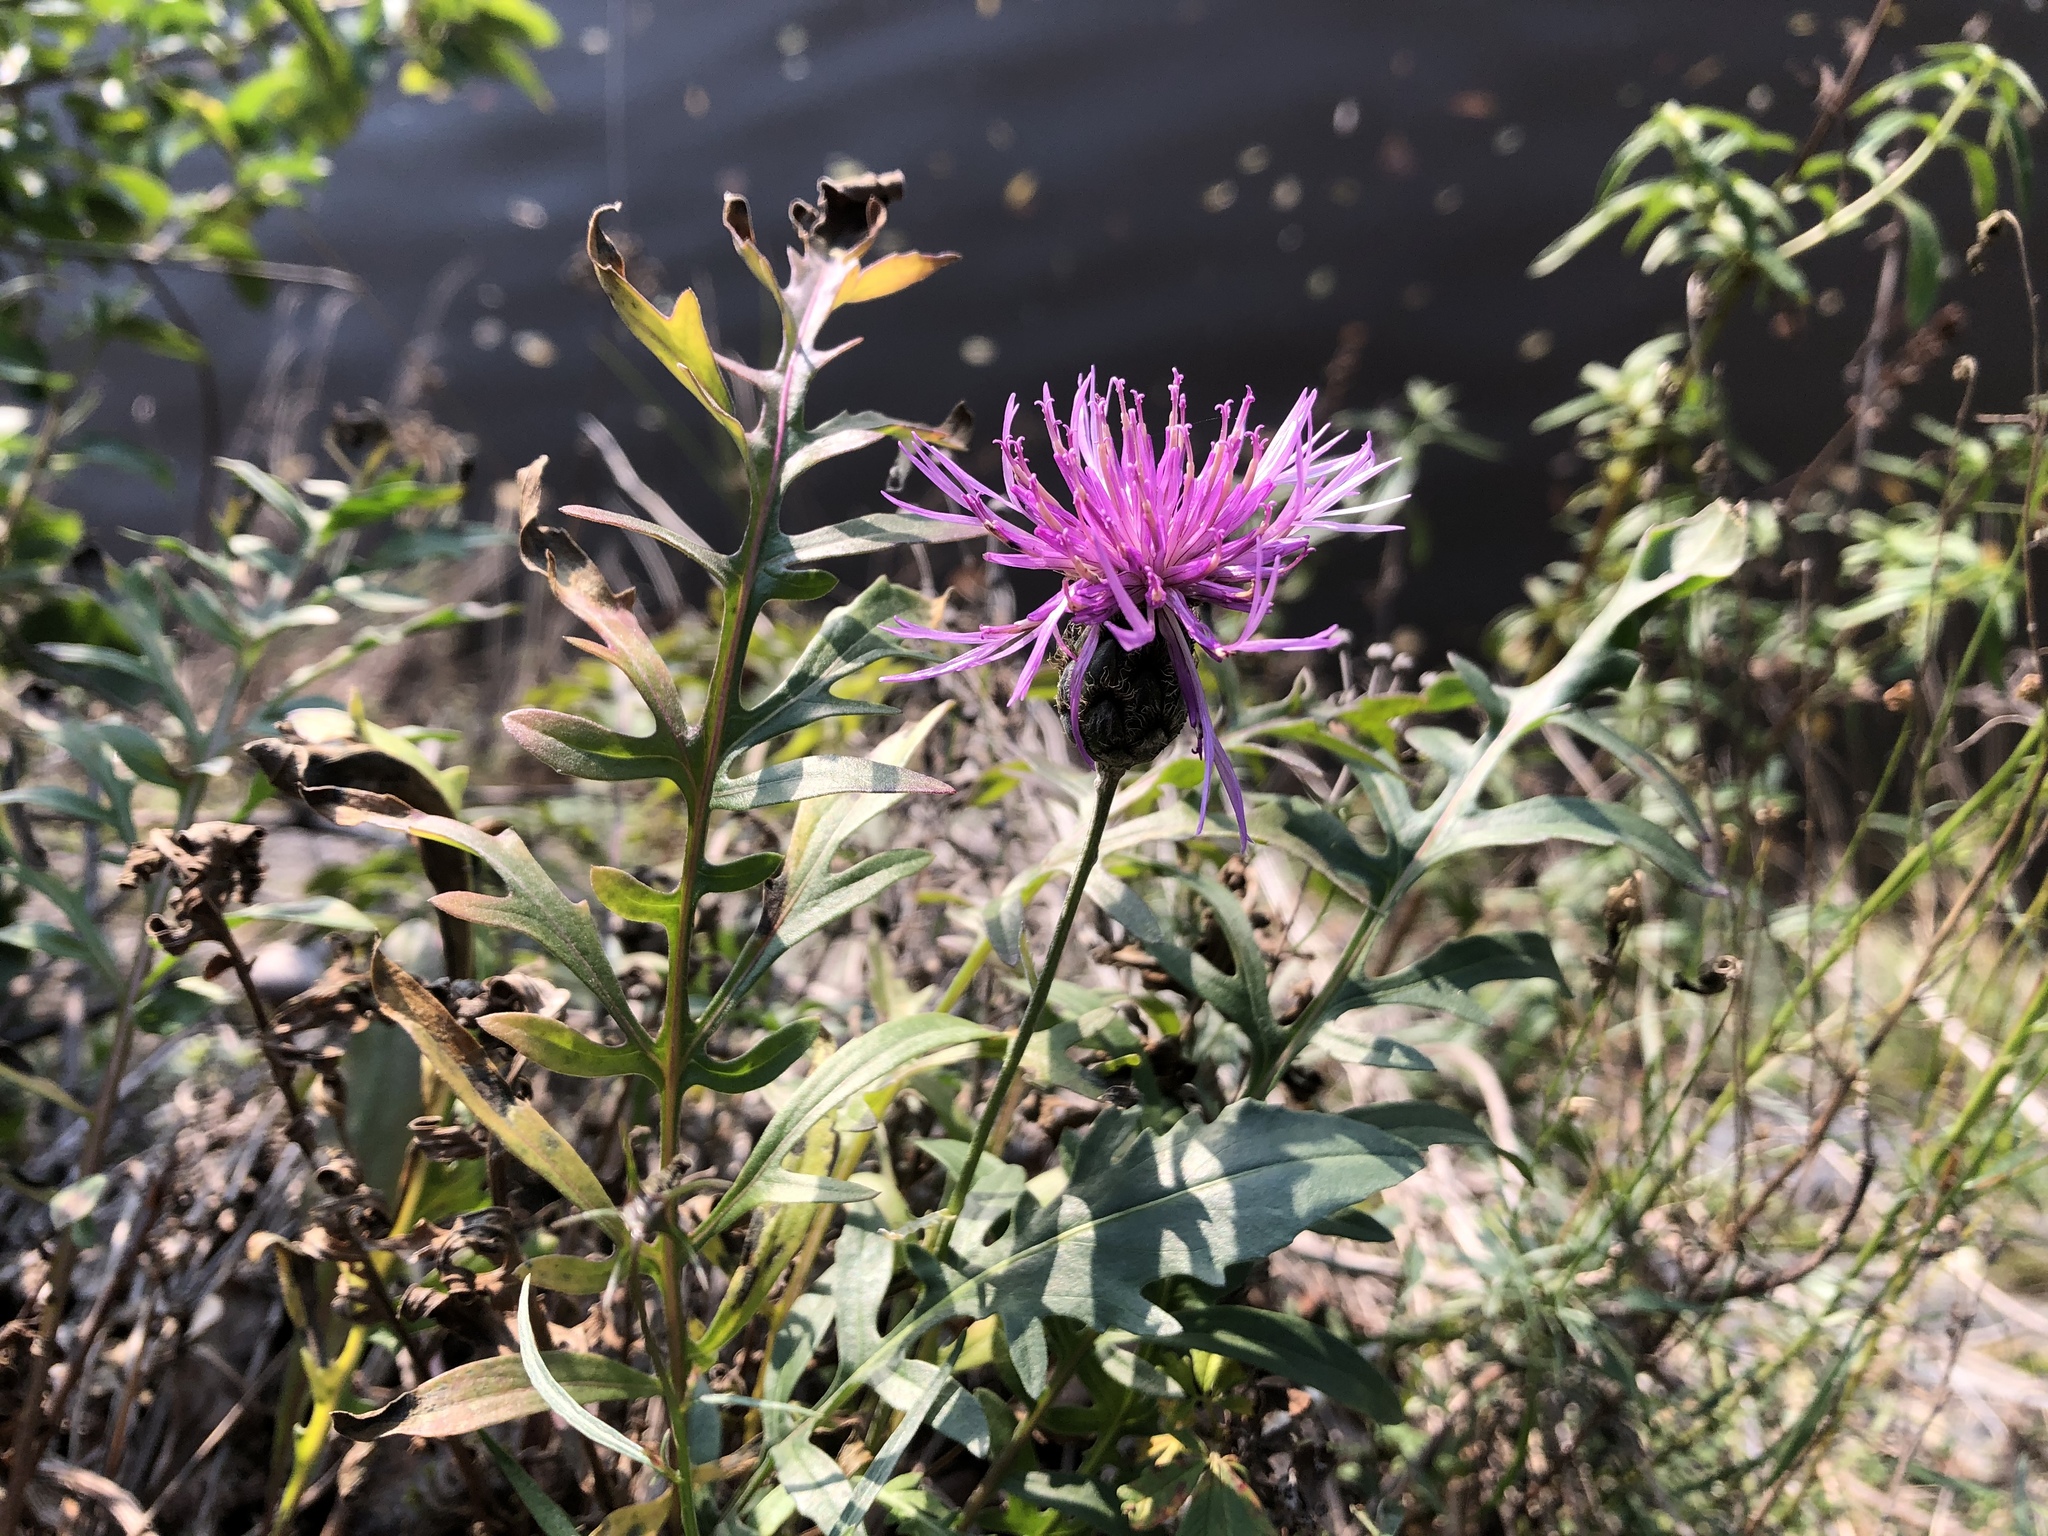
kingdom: Plantae
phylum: Tracheophyta
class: Magnoliopsida
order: Asterales
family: Asteraceae
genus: Centaurea
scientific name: Centaurea scabiosa
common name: Greater knapweed
